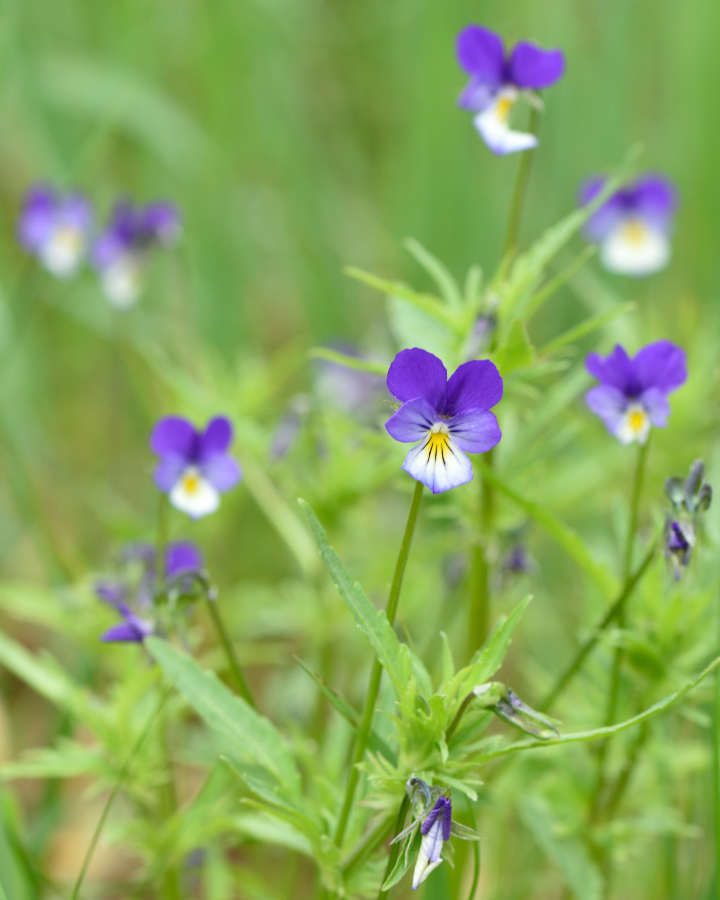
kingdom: Plantae
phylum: Tracheophyta
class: Magnoliopsida
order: Malpighiales
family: Violaceae
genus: Viola
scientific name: Viola tricolor
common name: Pansy
